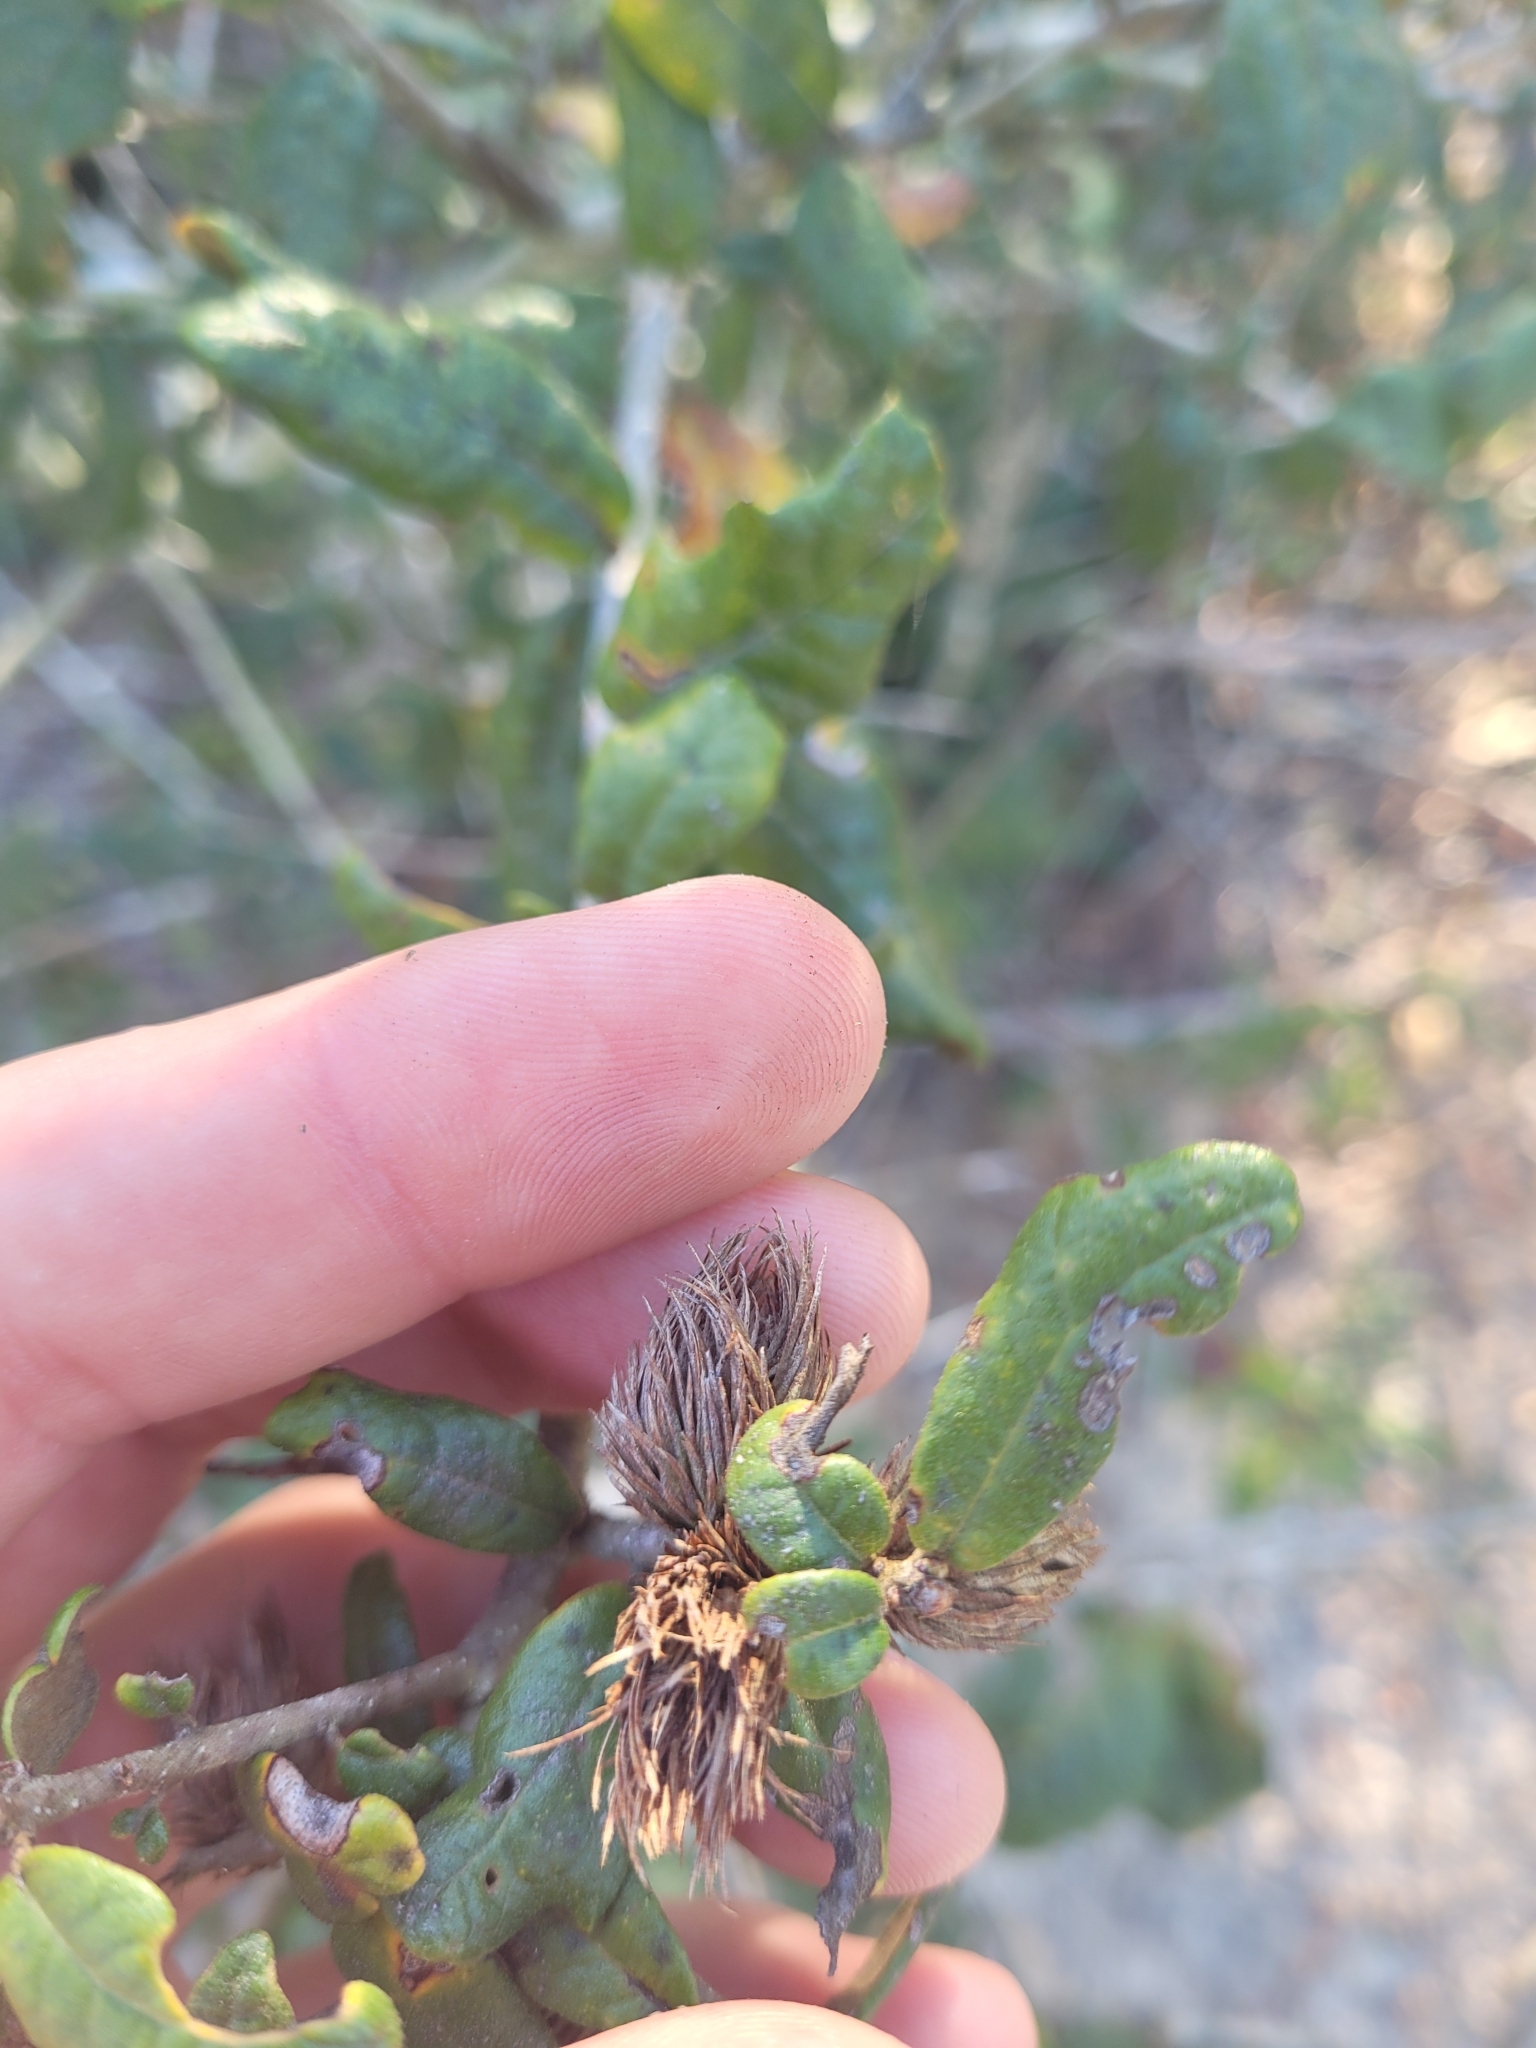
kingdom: Animalia
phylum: Arthropoda
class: Insecta
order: Hymenoptera
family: Cynipidae
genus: Andricus
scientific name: Andricus quercusfoliatus
